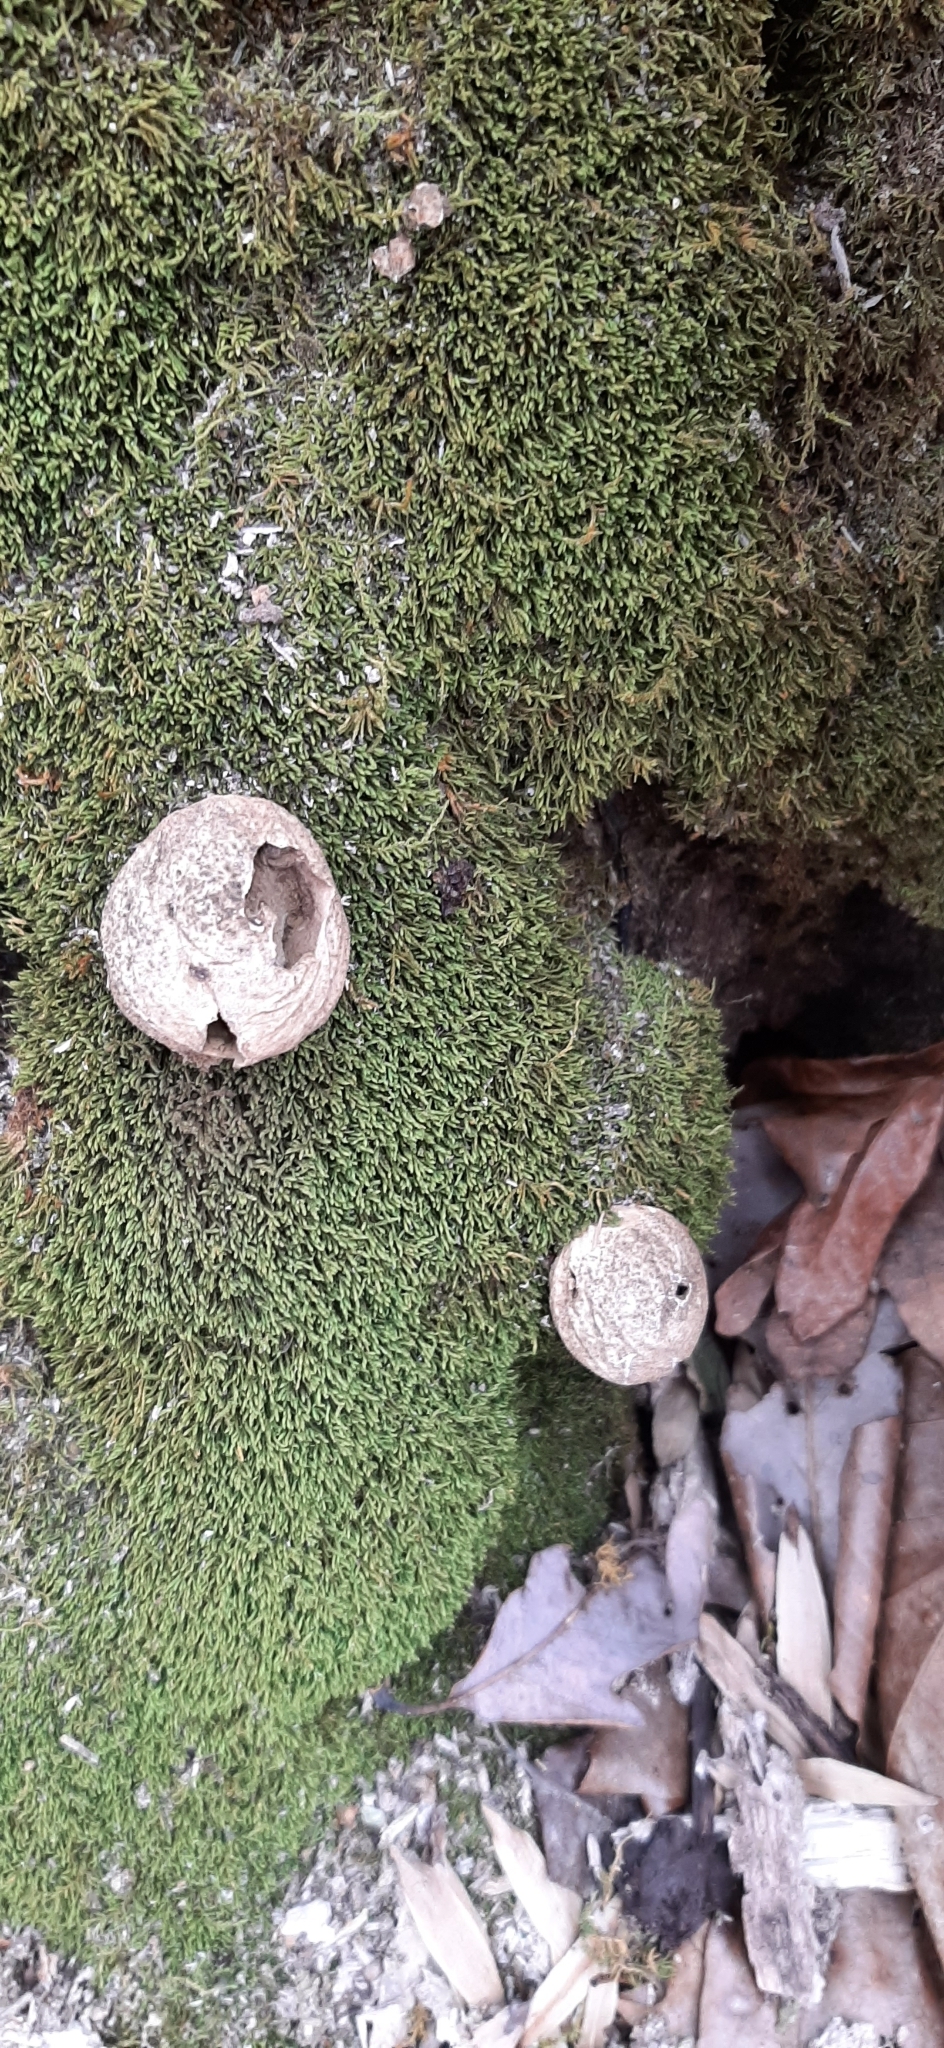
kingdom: Fungi
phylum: Basidiomycota
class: Agaricomycetes
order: Agaricales
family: Lycoperdaceae
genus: Apioperdon
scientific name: Apioperdon pyriforme
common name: Pear-shaped puffball
